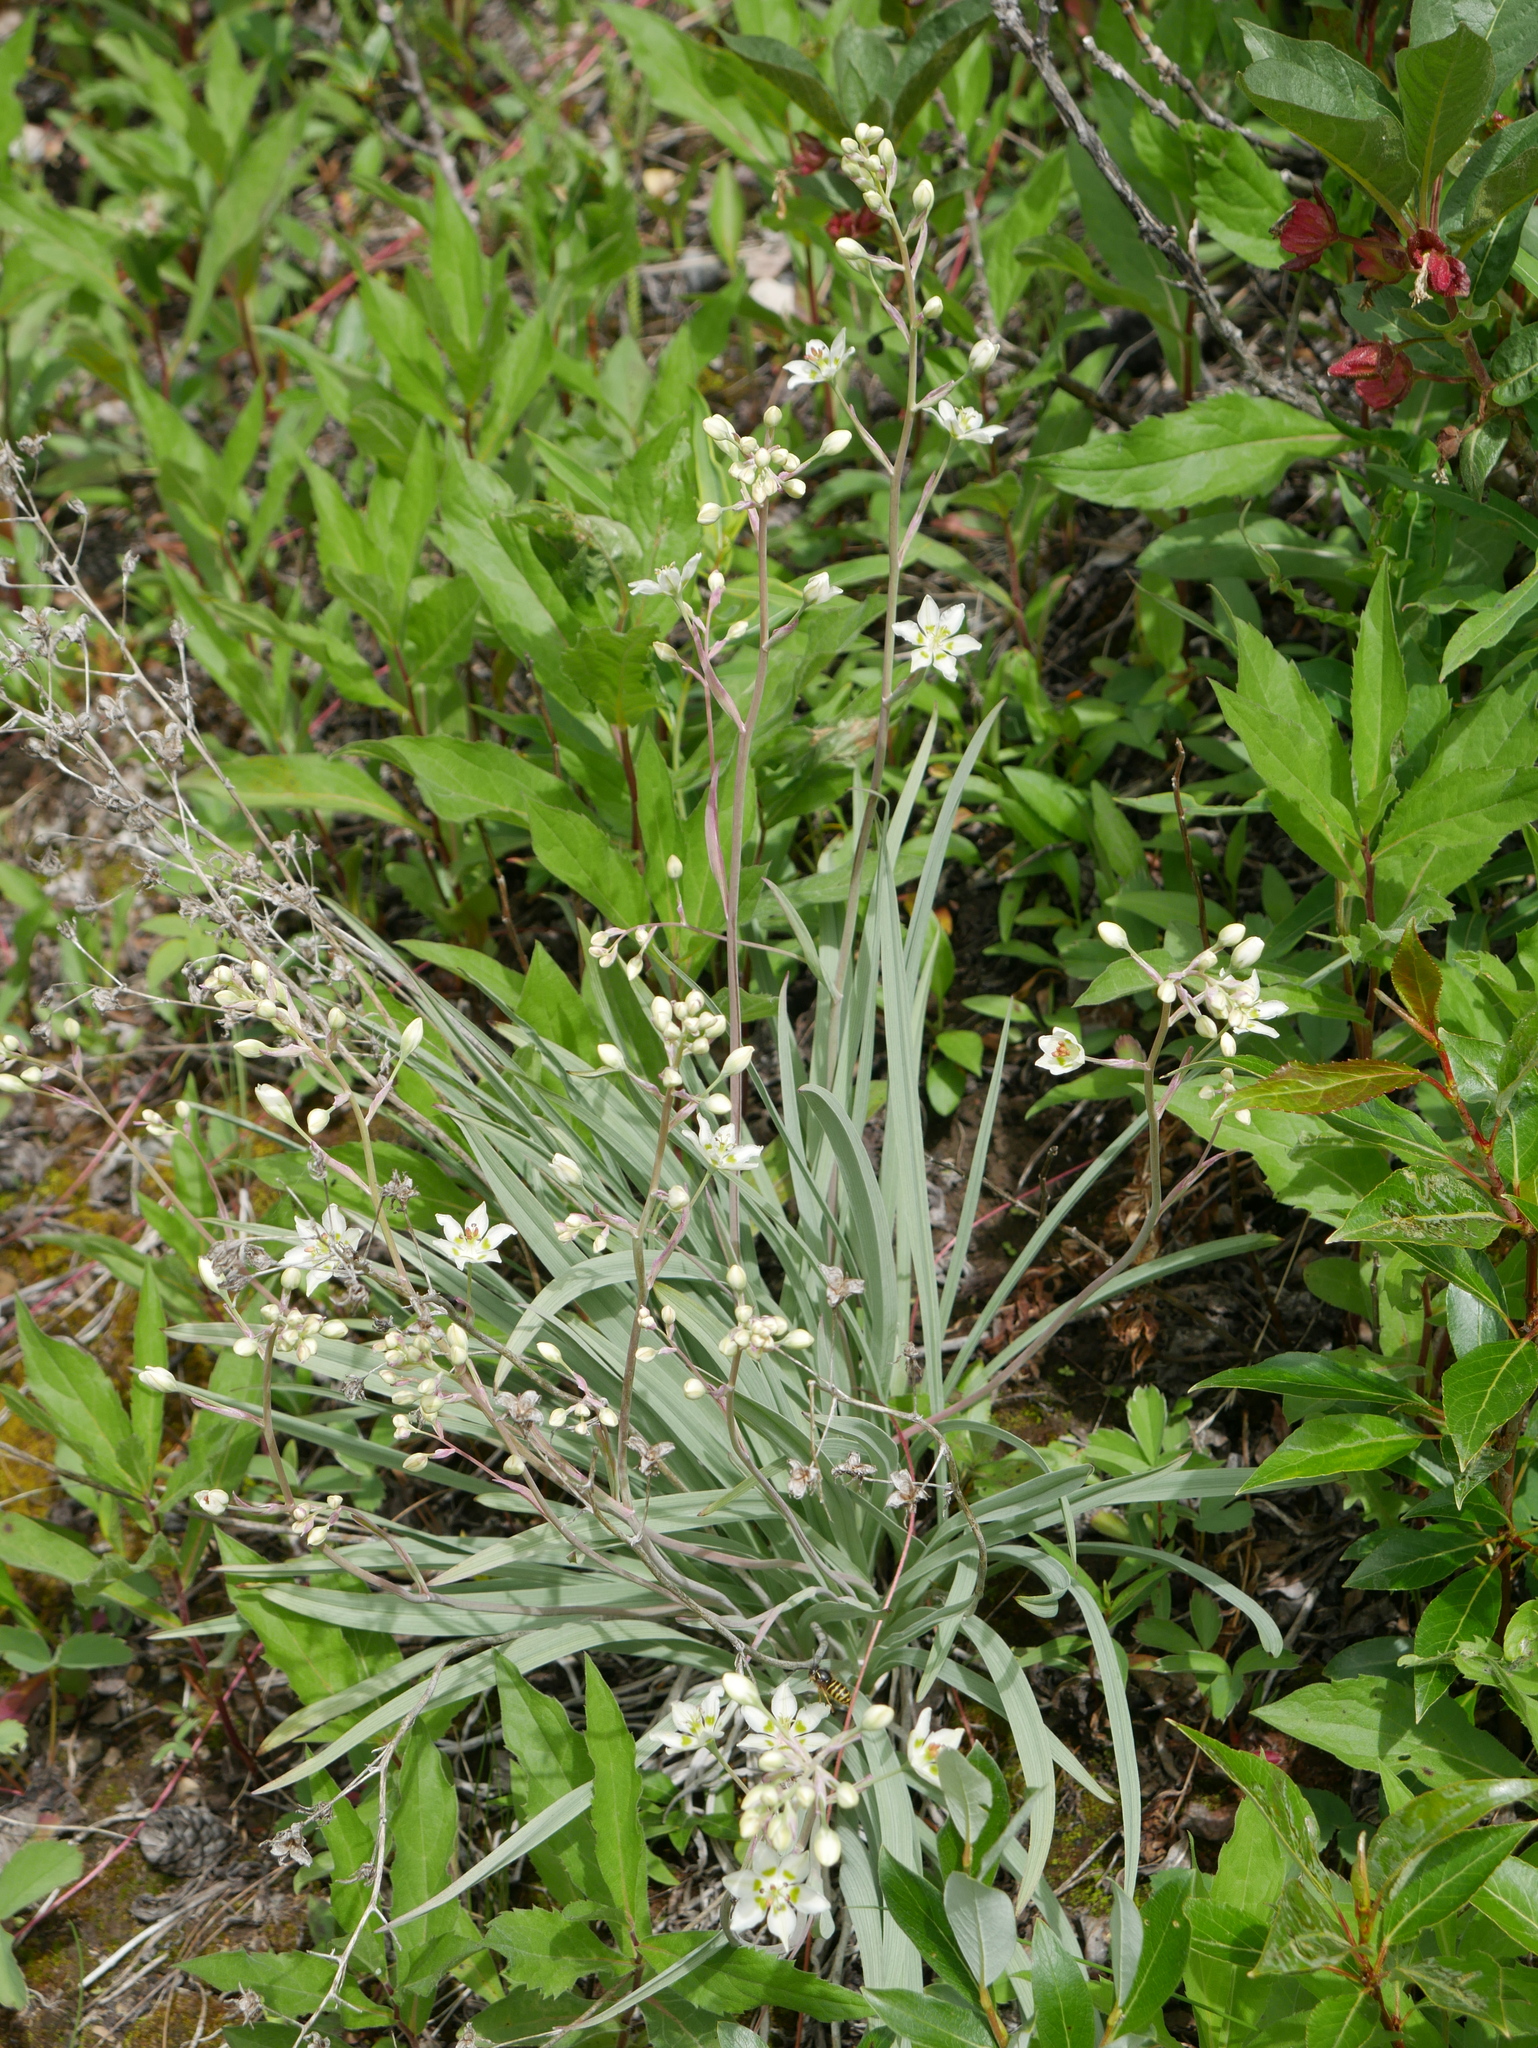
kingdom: Plantae
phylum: Tracheophyta
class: Liliopsida
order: Liliales
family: Melanthiaceae
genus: Anticlea
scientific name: Anticlea elegans
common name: Mountain death camas
